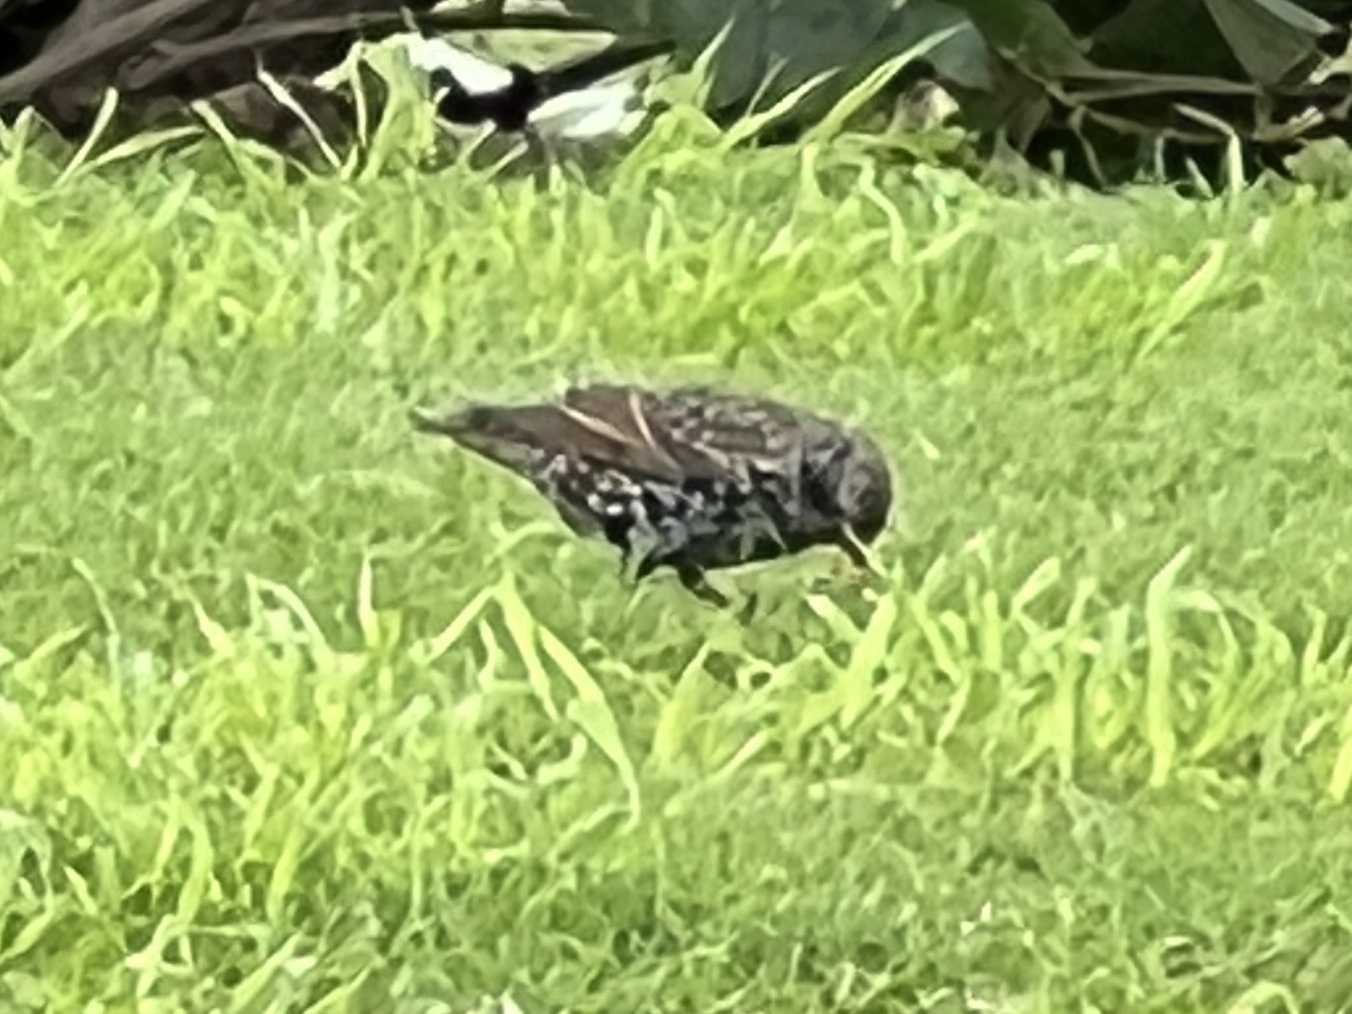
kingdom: Animalia
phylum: Chordata
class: Aves
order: Passeriformes
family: Sturnidae
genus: Sturnus
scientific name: Sturnus vulgaris
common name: Common starling
